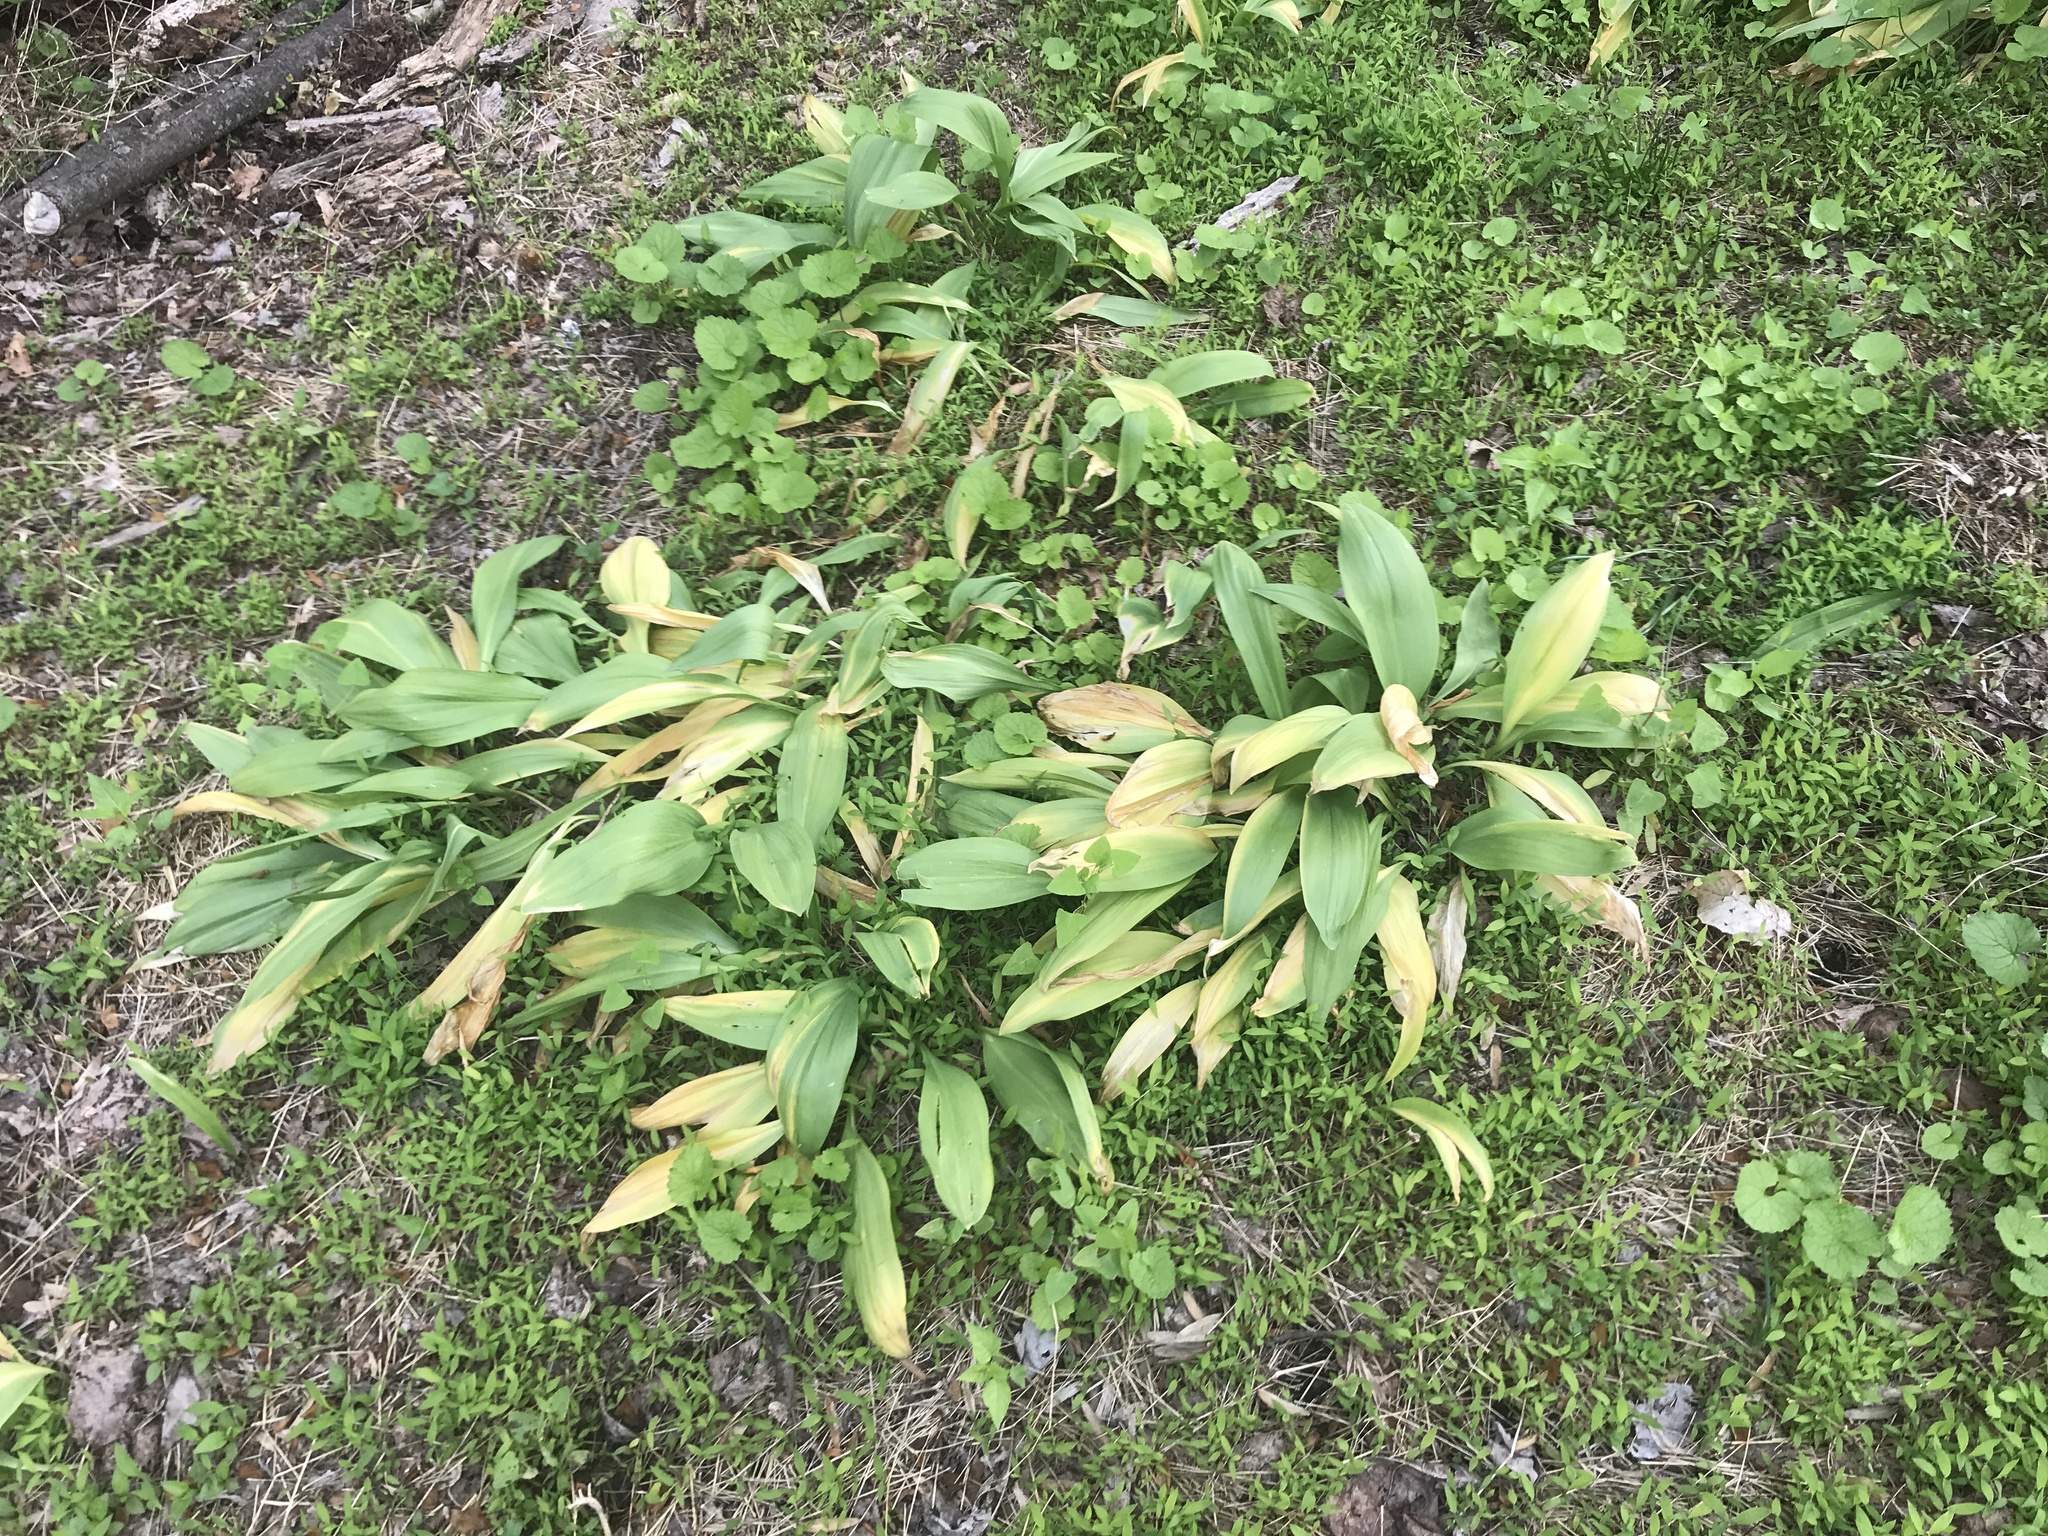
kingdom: Plantae
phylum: Tracheophyta
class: Liliopsida
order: Asparagales
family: Amaryllidaceae
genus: Allium
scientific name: Allium tricoccum
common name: Ramp
